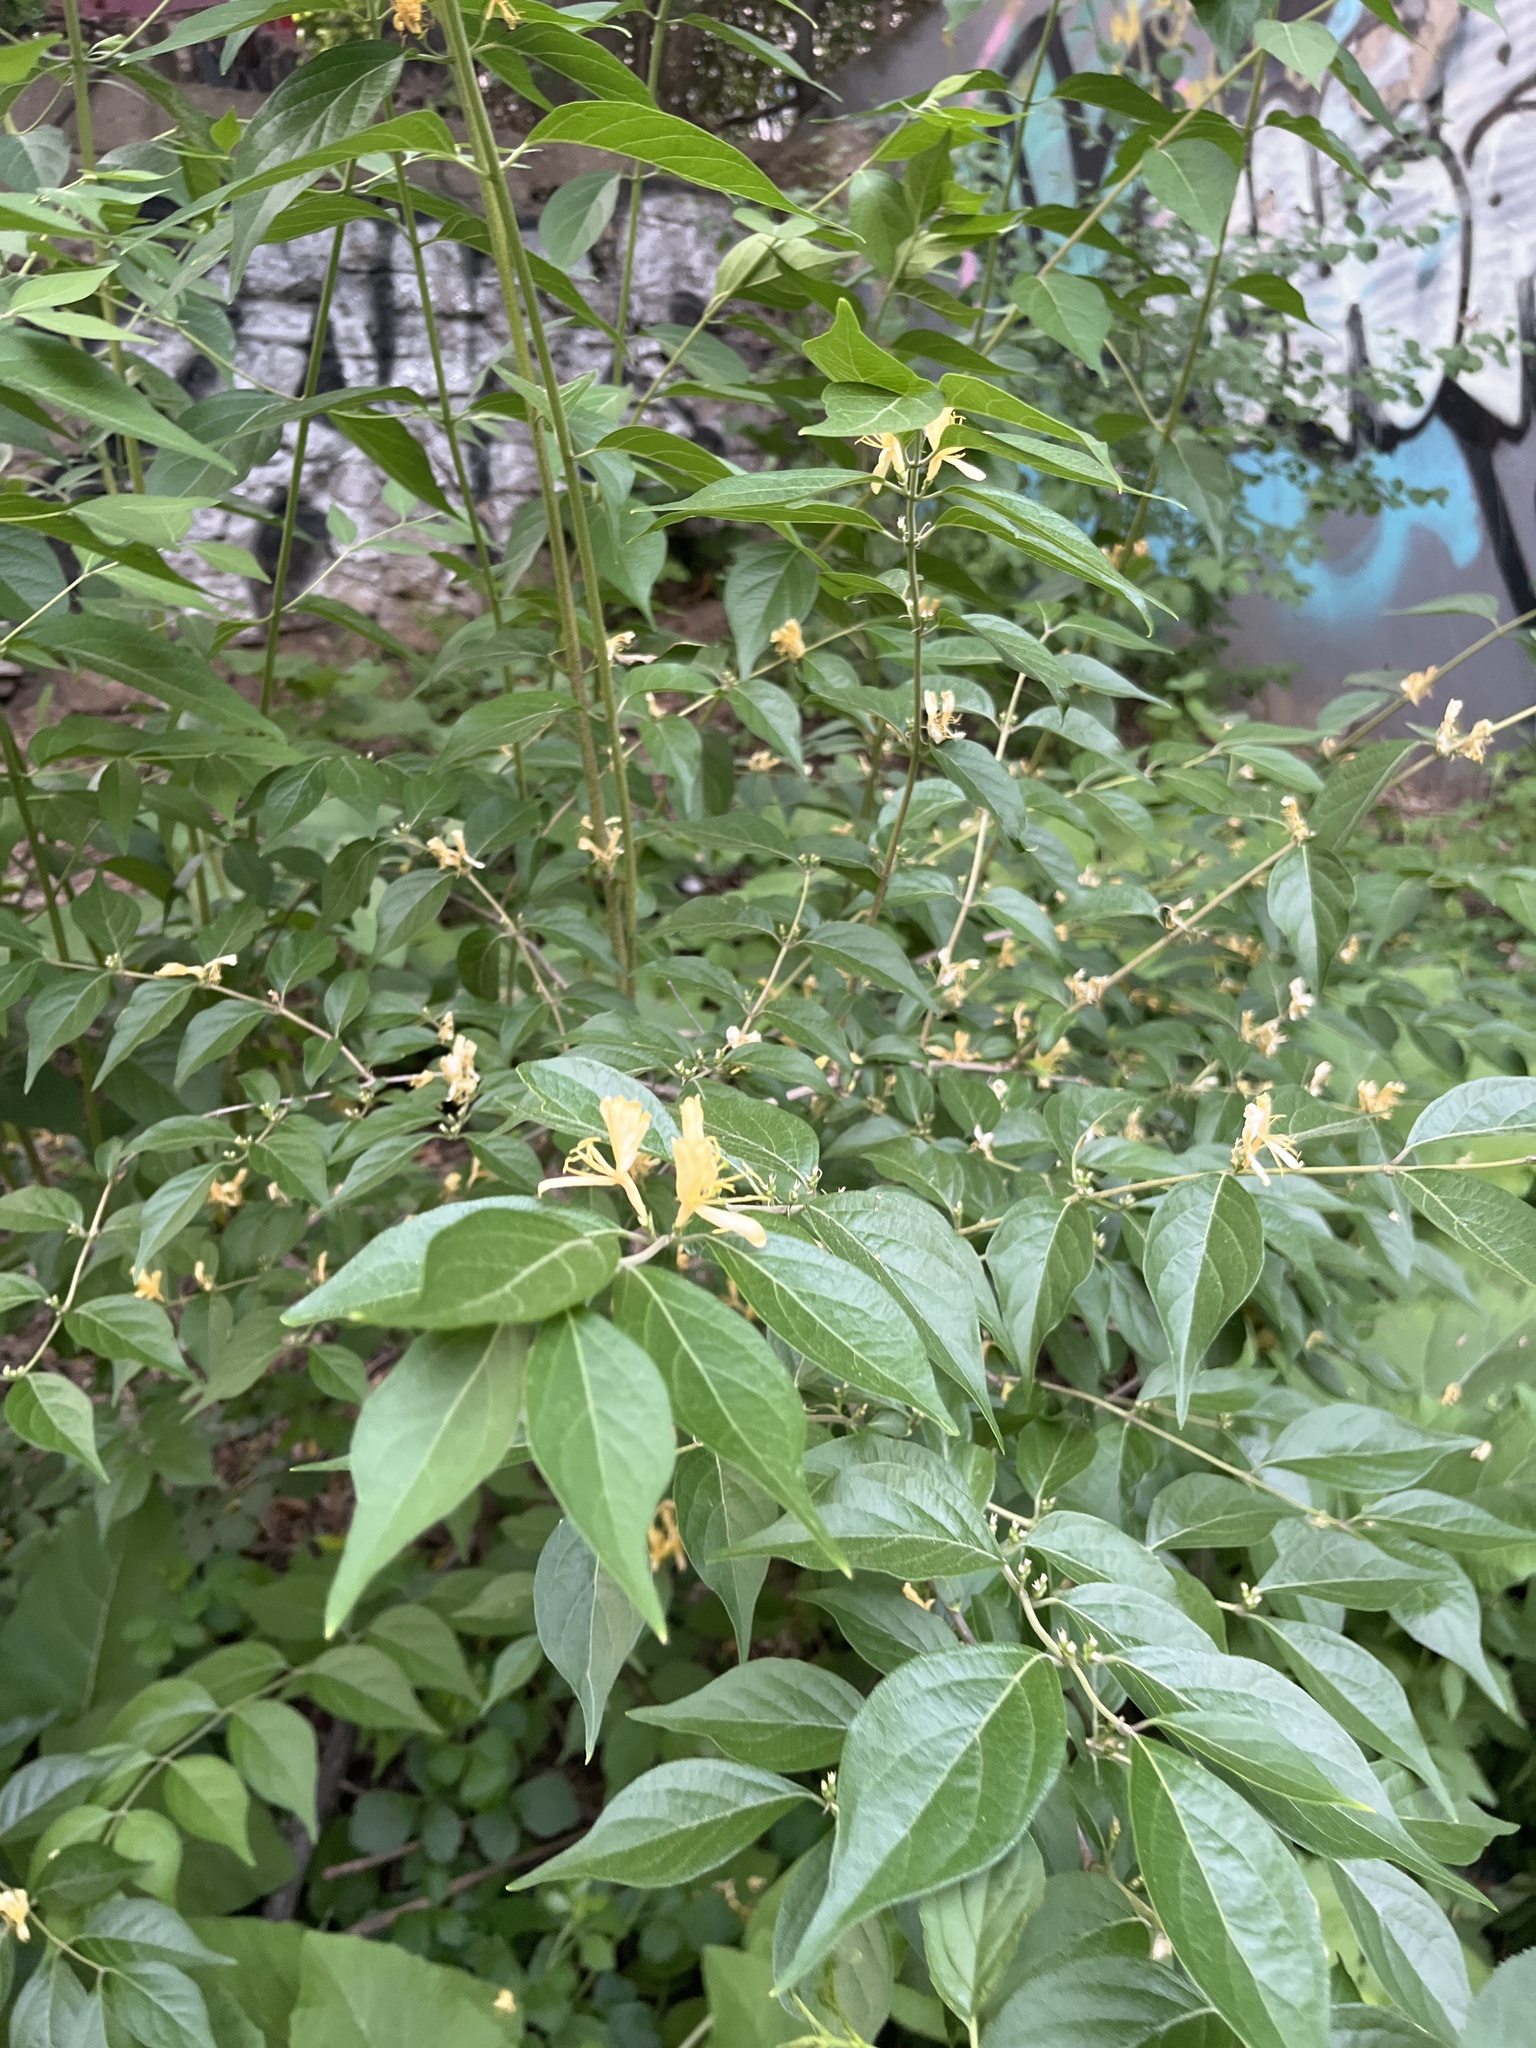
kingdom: Plantae
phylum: Tracheophyta
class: Magnoliopsida
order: Dipsacales
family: Caprifoliaceae
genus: Lonicera
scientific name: Lonicera maackii
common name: Amur honeysuckle
